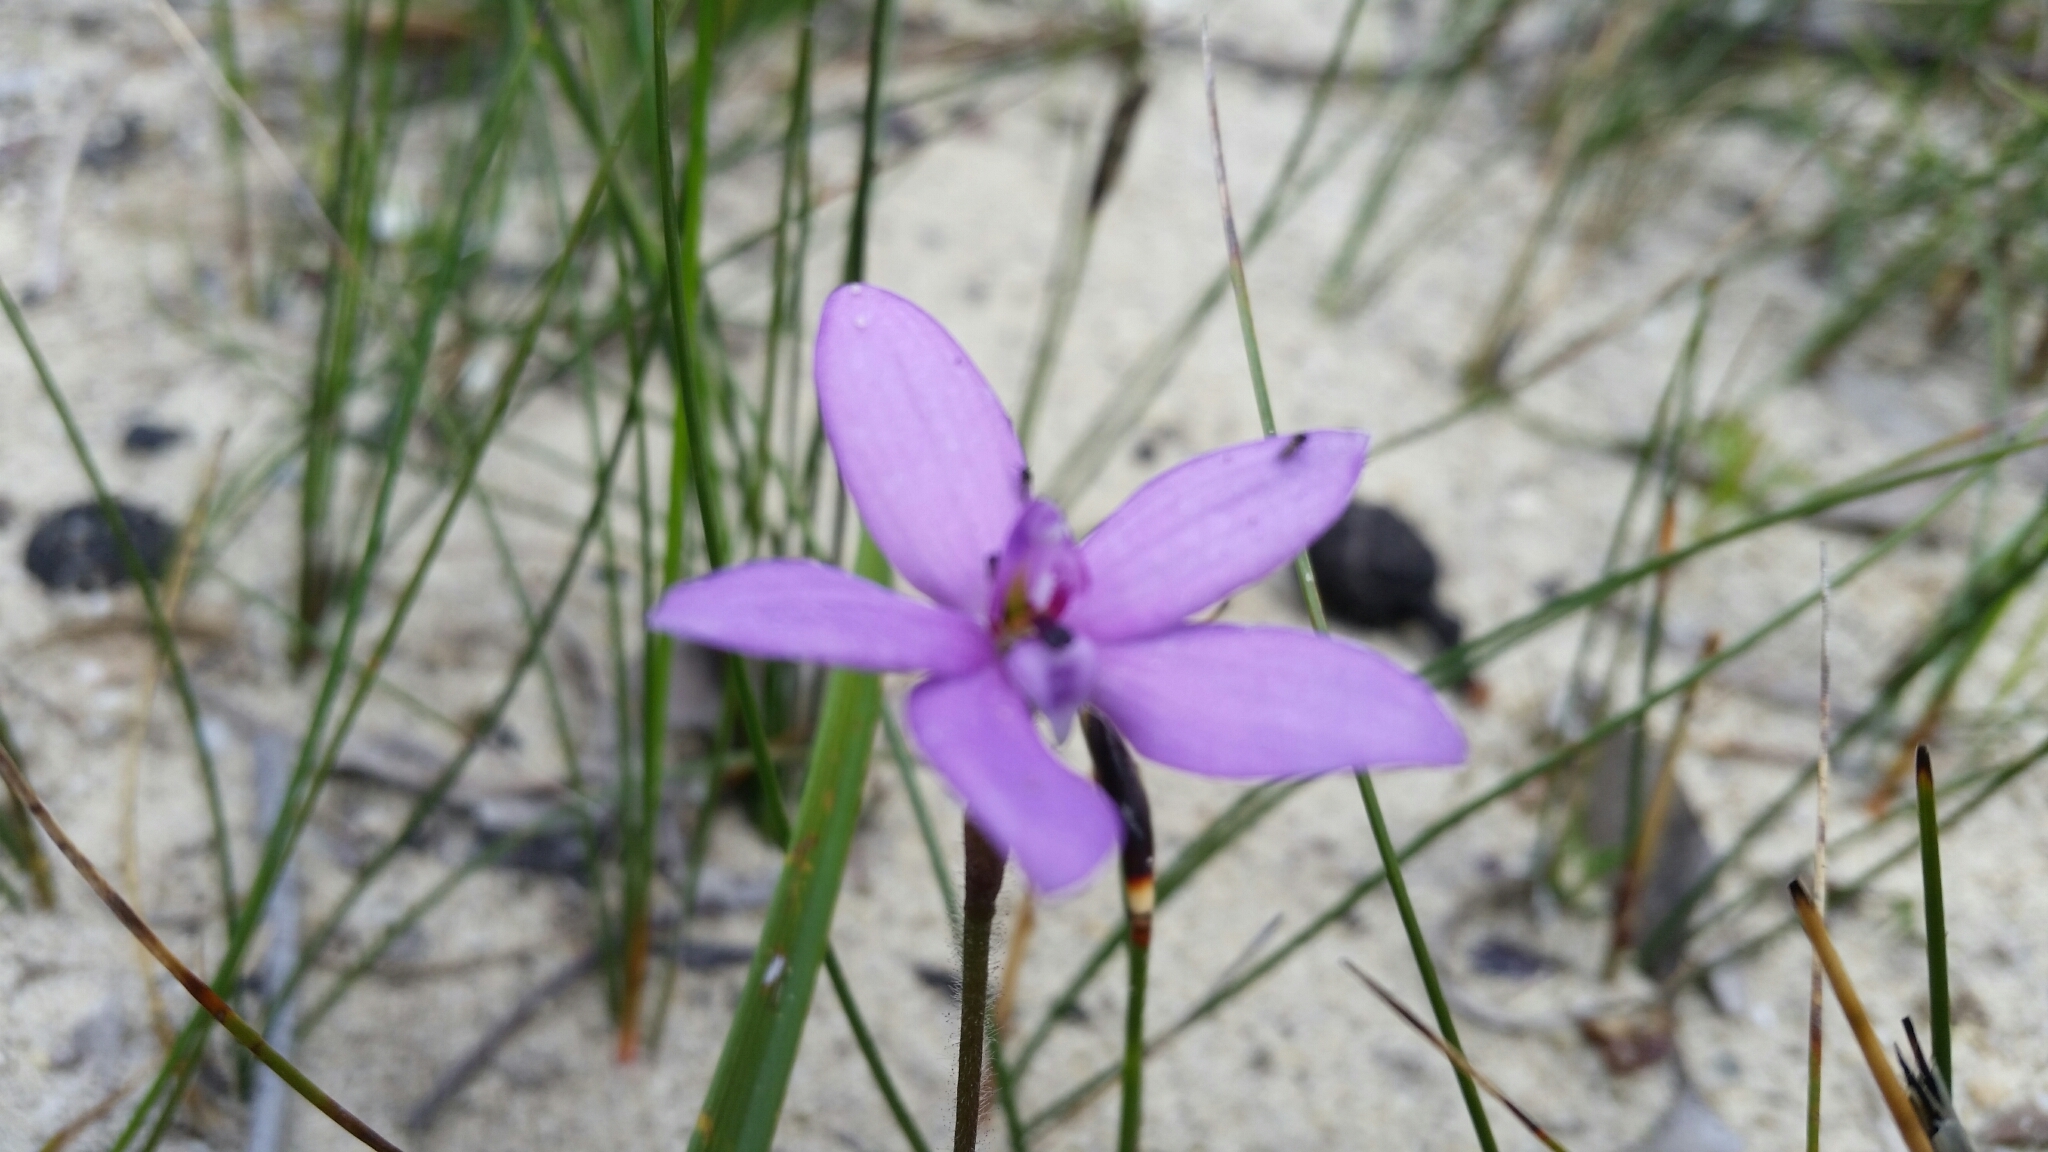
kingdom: Plantae
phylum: Tracheophyta
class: Liliopsida
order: Asparagales
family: Orchidaceae
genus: Caladenia
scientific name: Caladenia minorata
